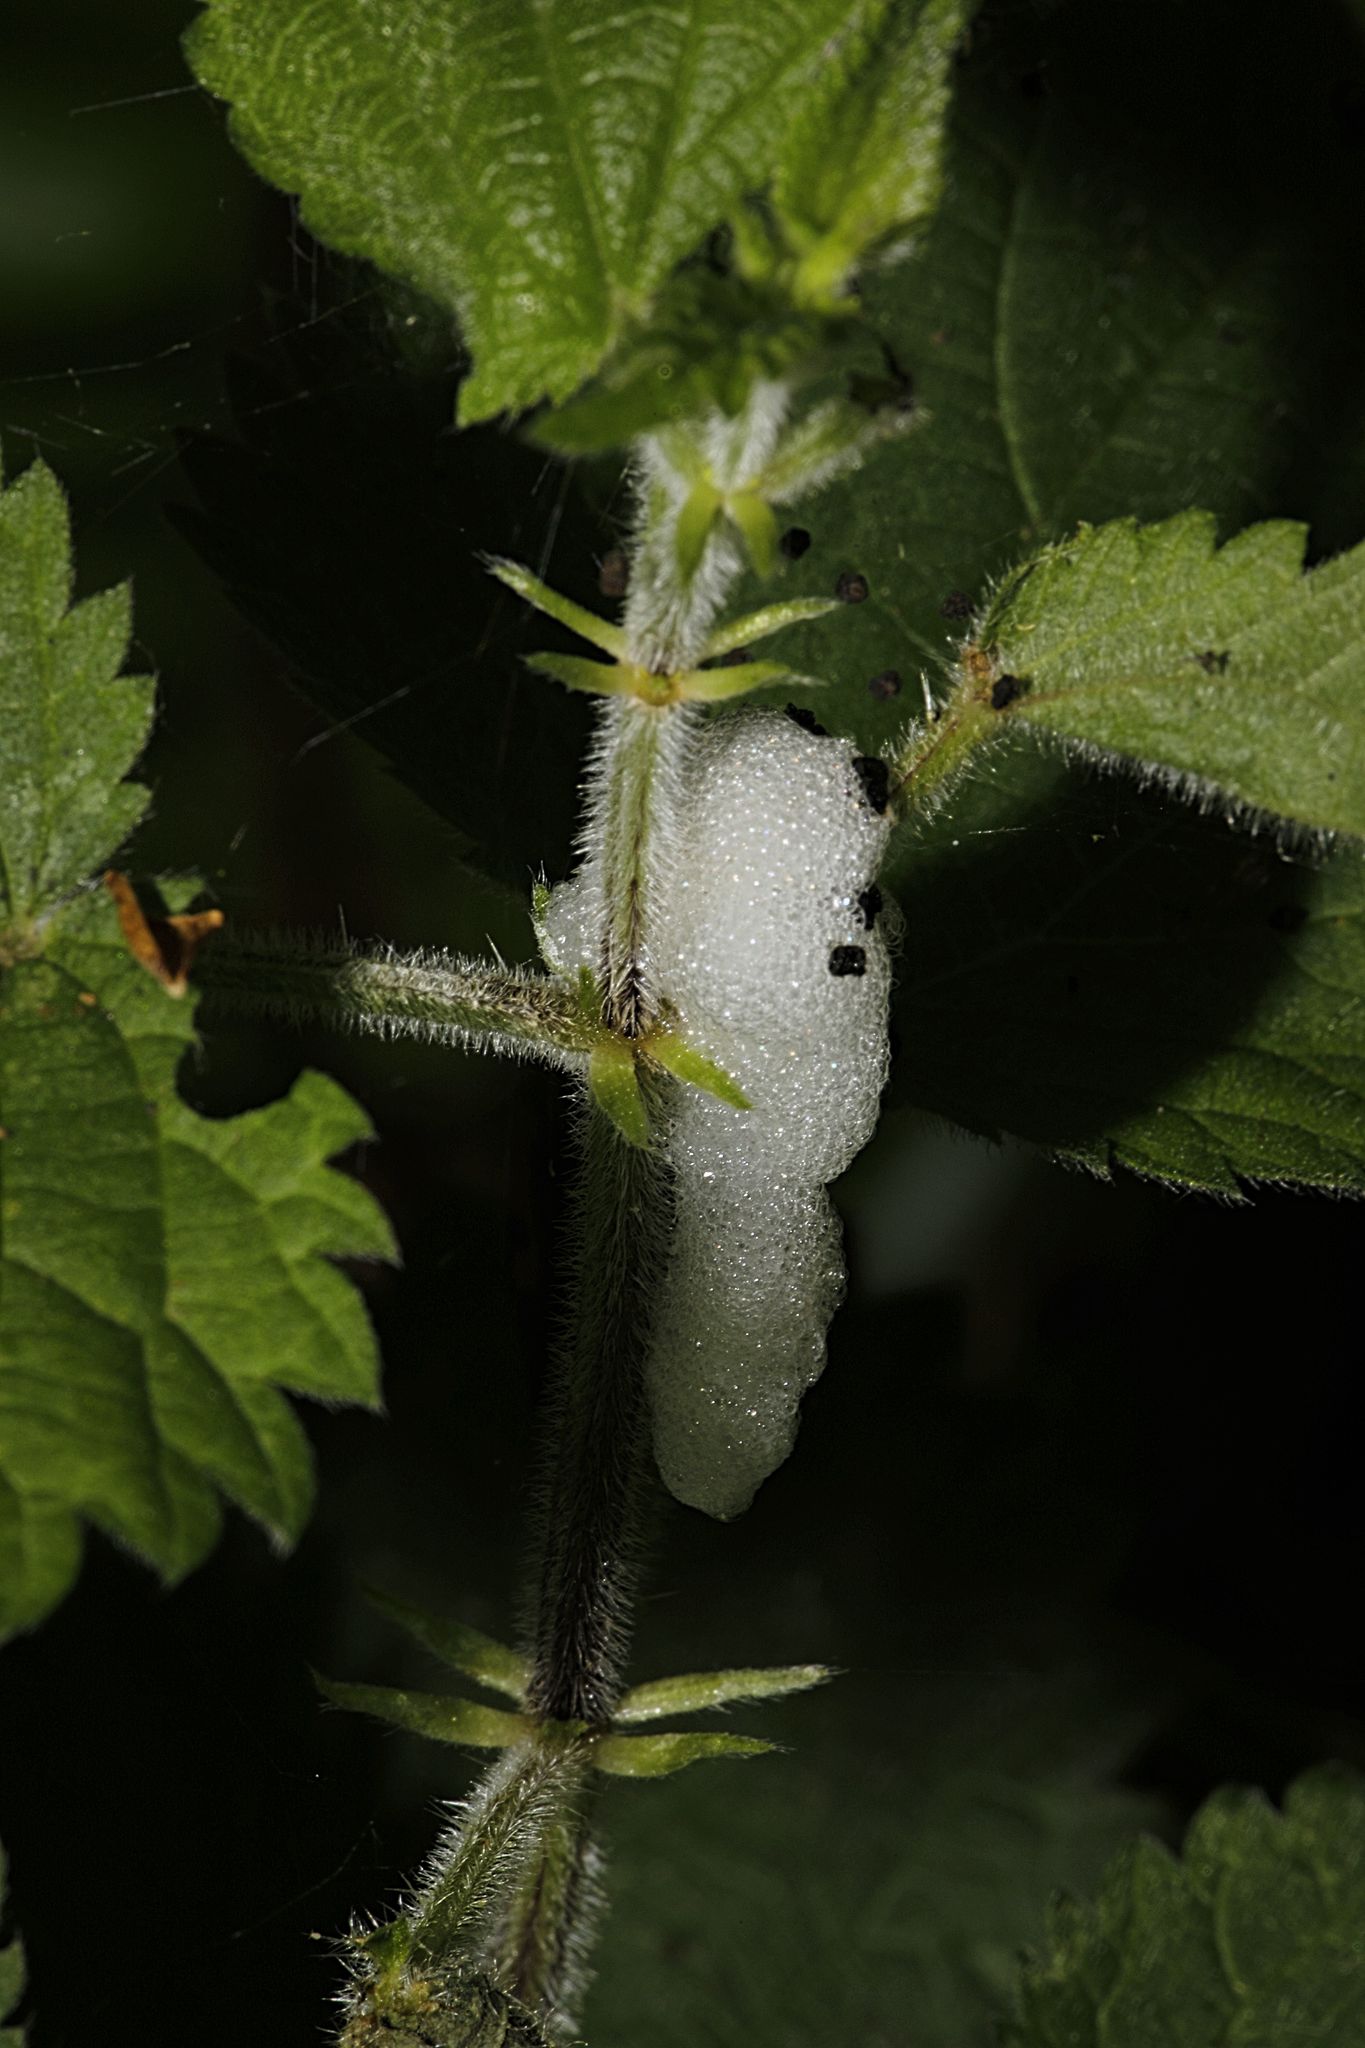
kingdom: Animalia
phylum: Arthropoda
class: Insecta
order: Hemiptera
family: Aphrophoridae
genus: Philaenus
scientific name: Philaenus spumarius
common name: Meadow spittlebug
